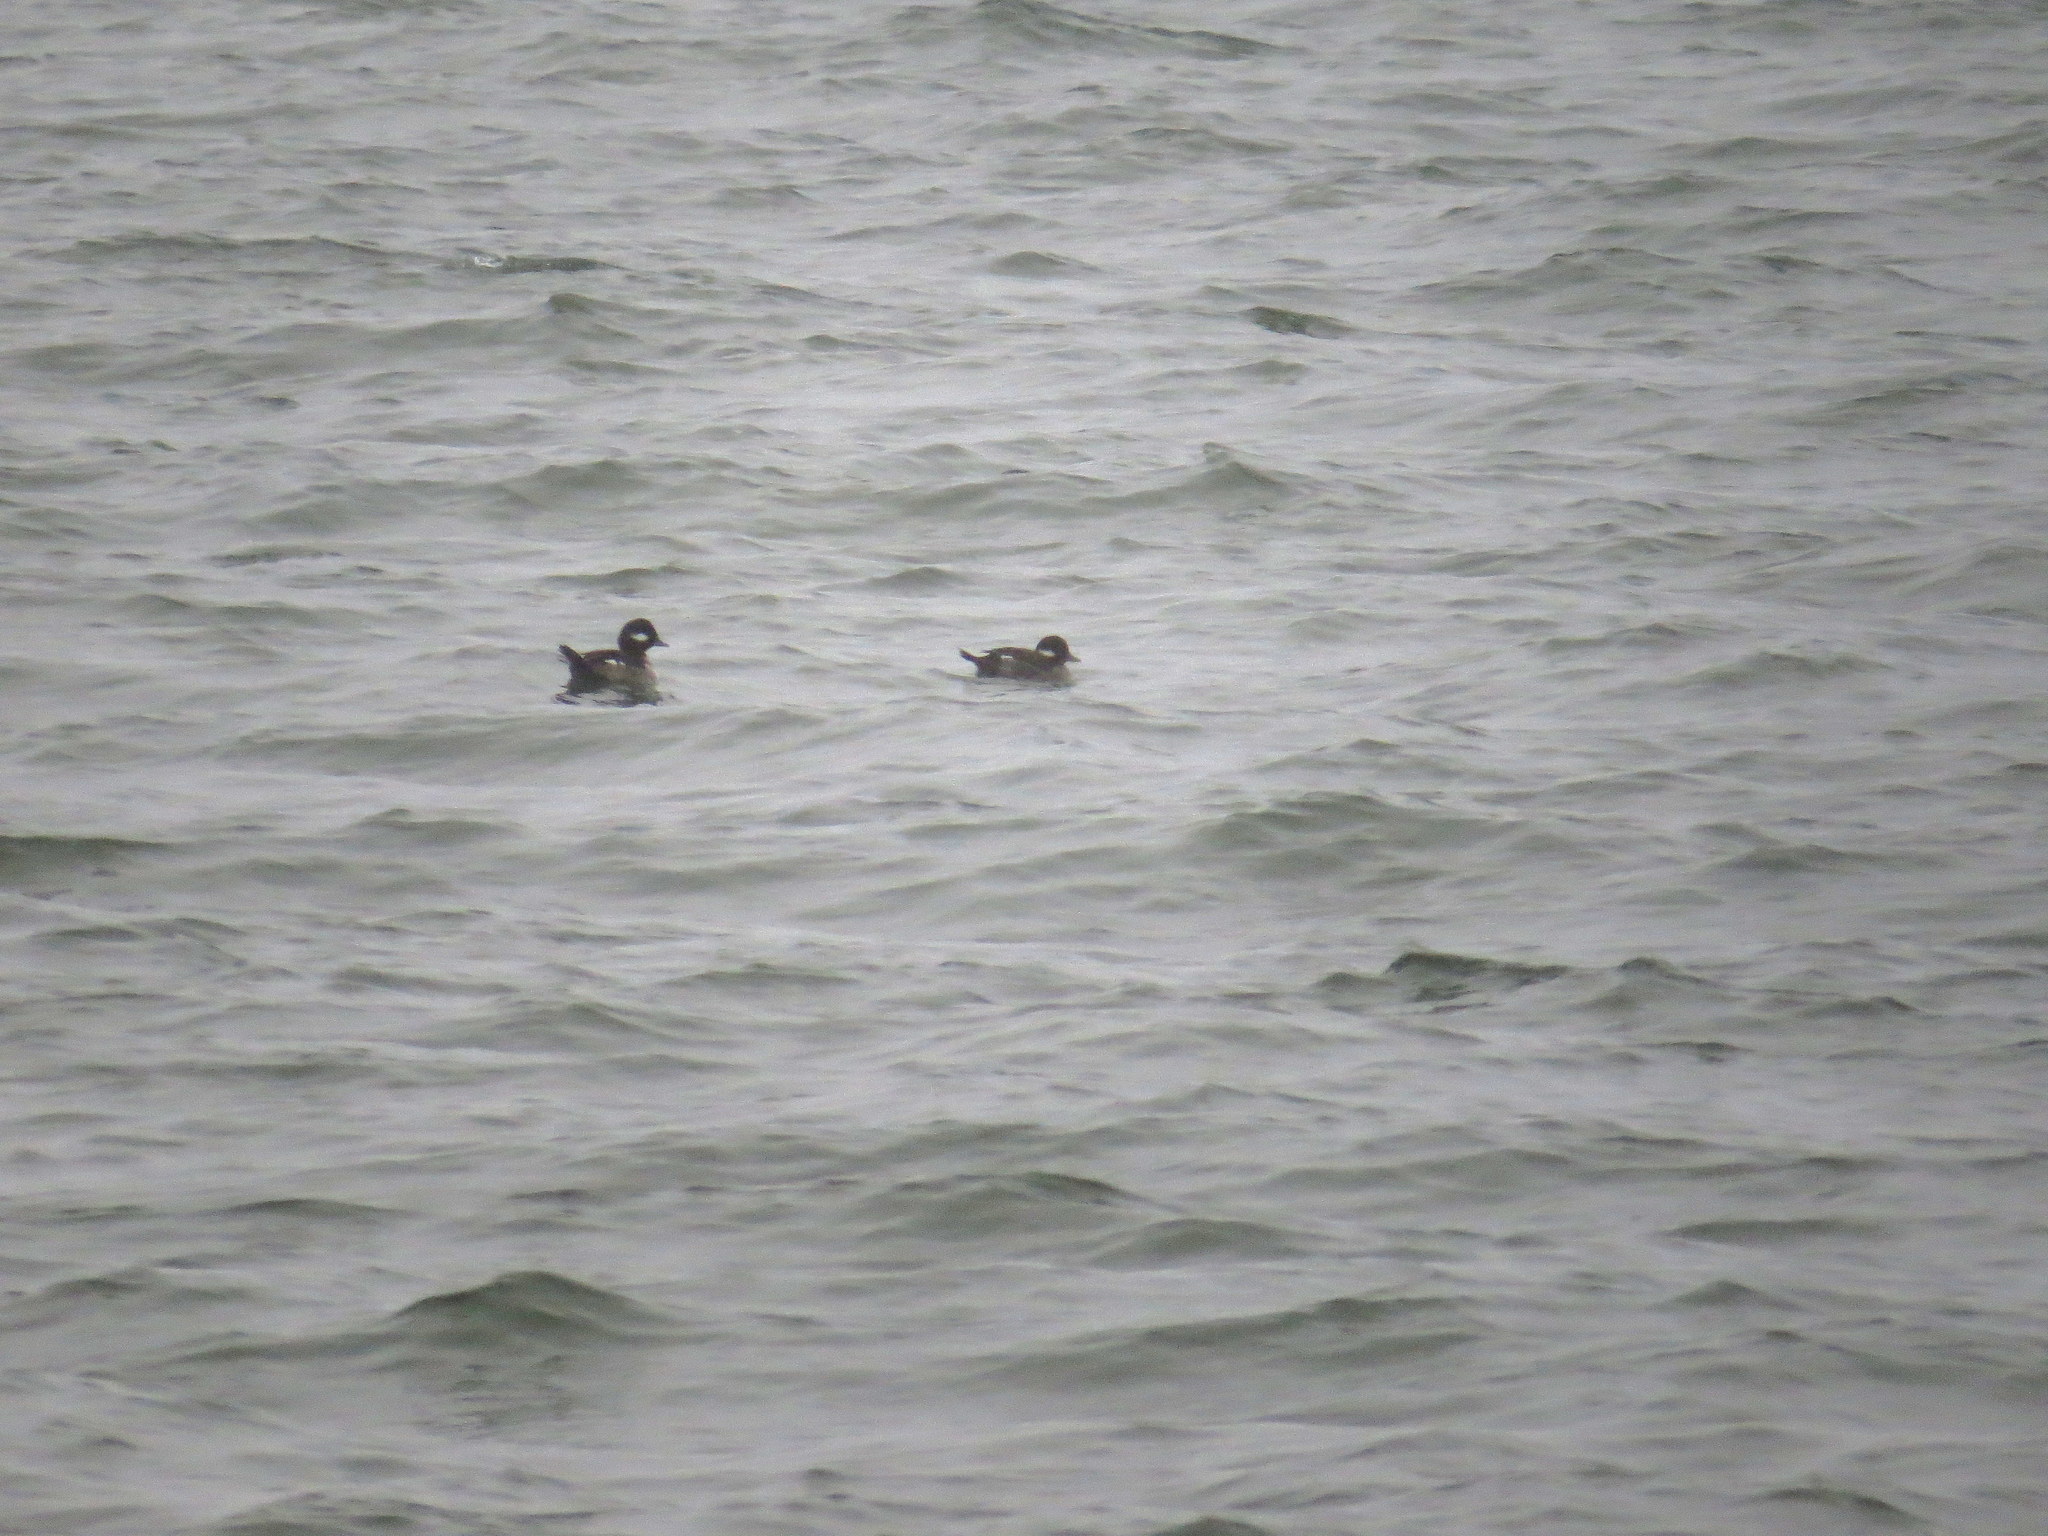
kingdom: Animalia
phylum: Chordata
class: Aves
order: Anseriformes
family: Anatidae
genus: Bucephala
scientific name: Bucephala albeola
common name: Bufflehead
